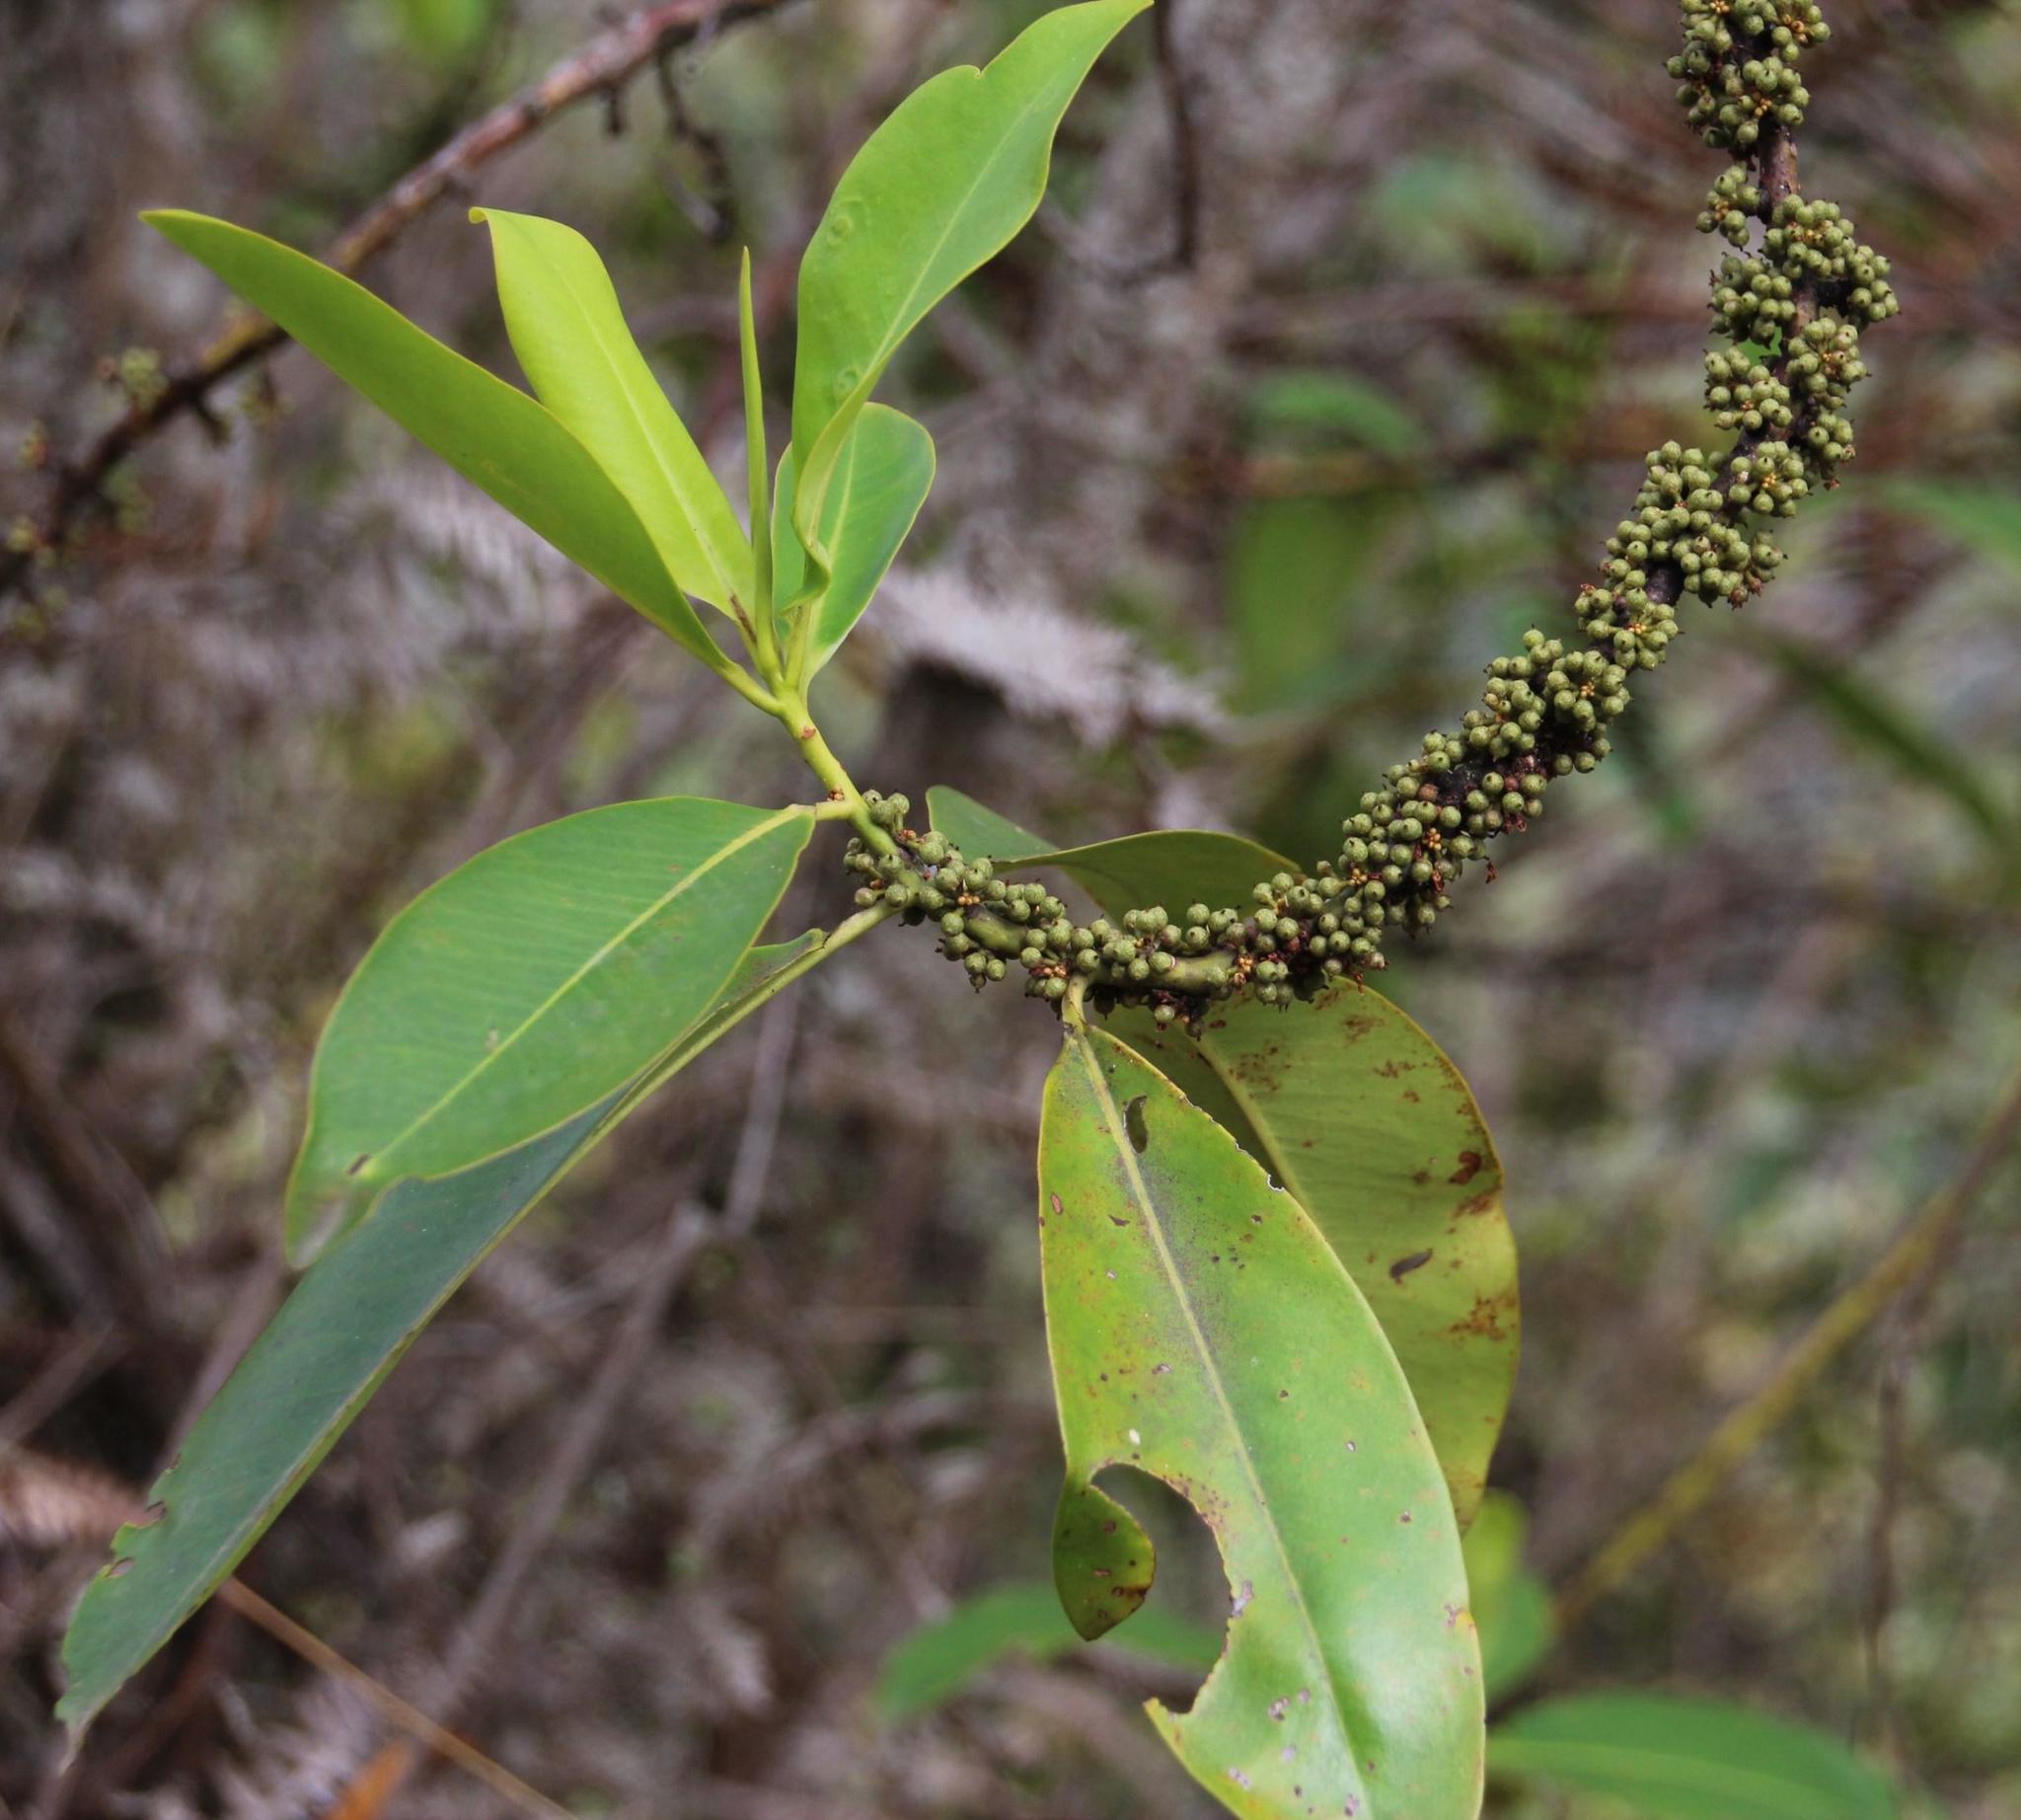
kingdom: Plantae
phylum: Tracheophyta
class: Magnoliopsida
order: Ericales
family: Primulaceae
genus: Myrsine
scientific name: Myrsine latifolia
